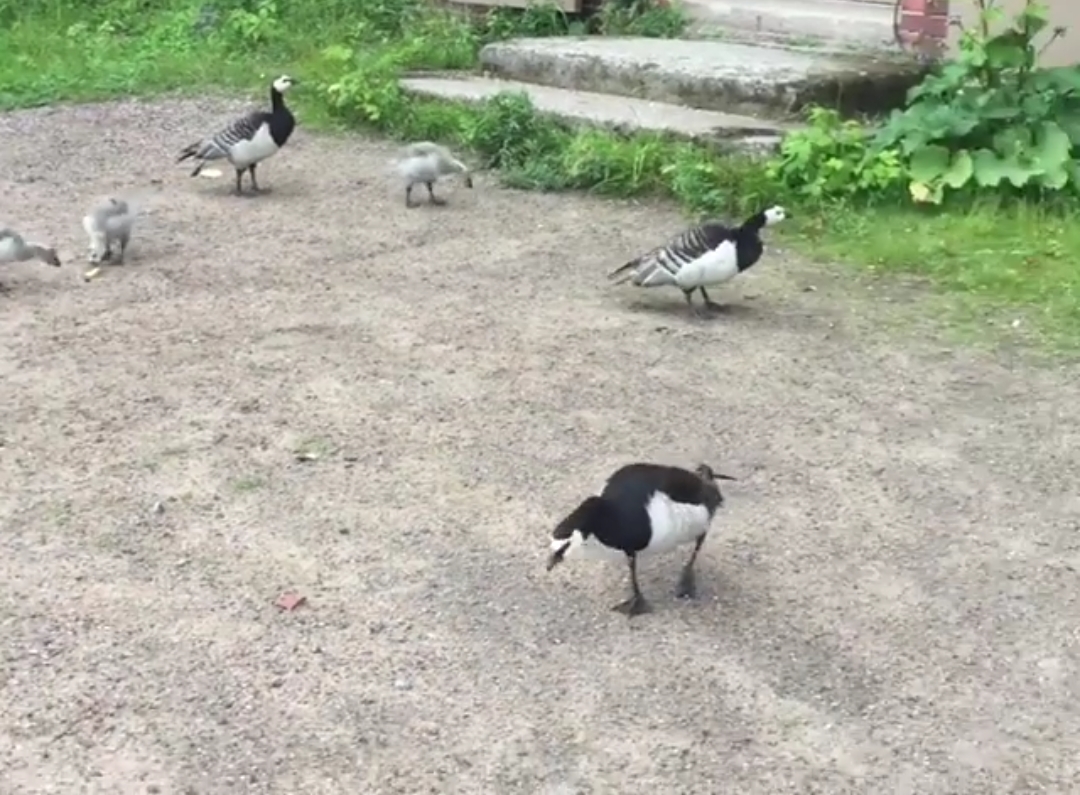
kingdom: Animalia
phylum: Chordata
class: Aves
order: Anseriformes
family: Anatidae
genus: Branta
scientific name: Branta leucopsis
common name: Barnacle goose
